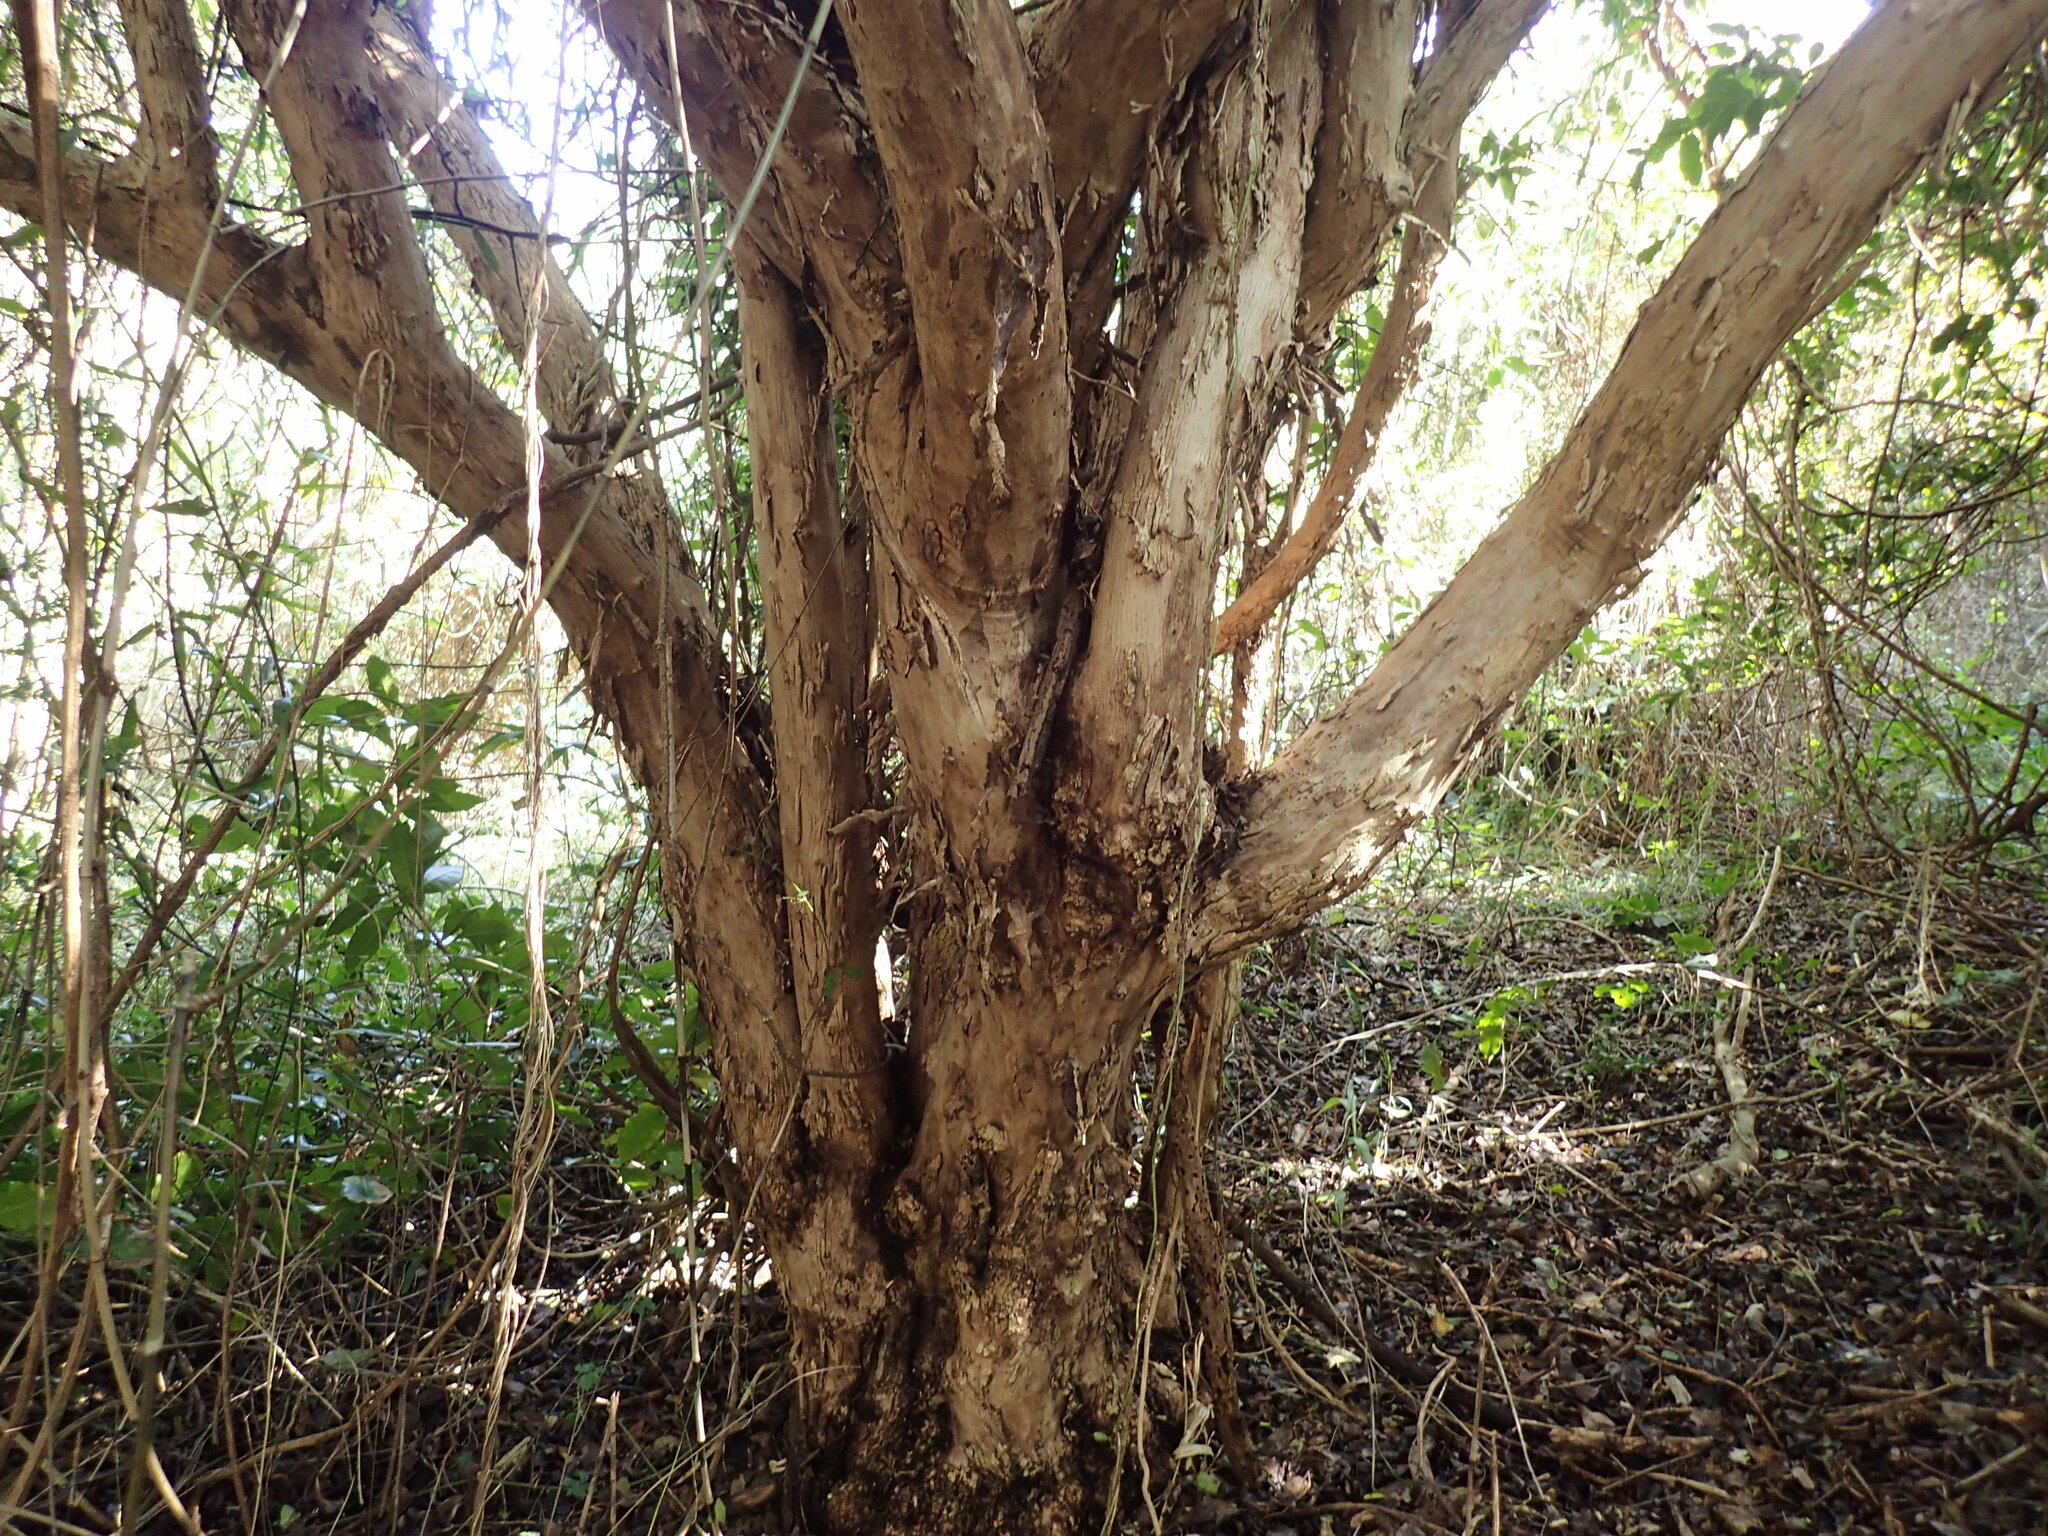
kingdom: Plantae
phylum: Tracheophyta
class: Magnoliopsida
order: Boraginales
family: Cordiaceae
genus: Cordia
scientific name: Cordia caffra
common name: Septee tree
